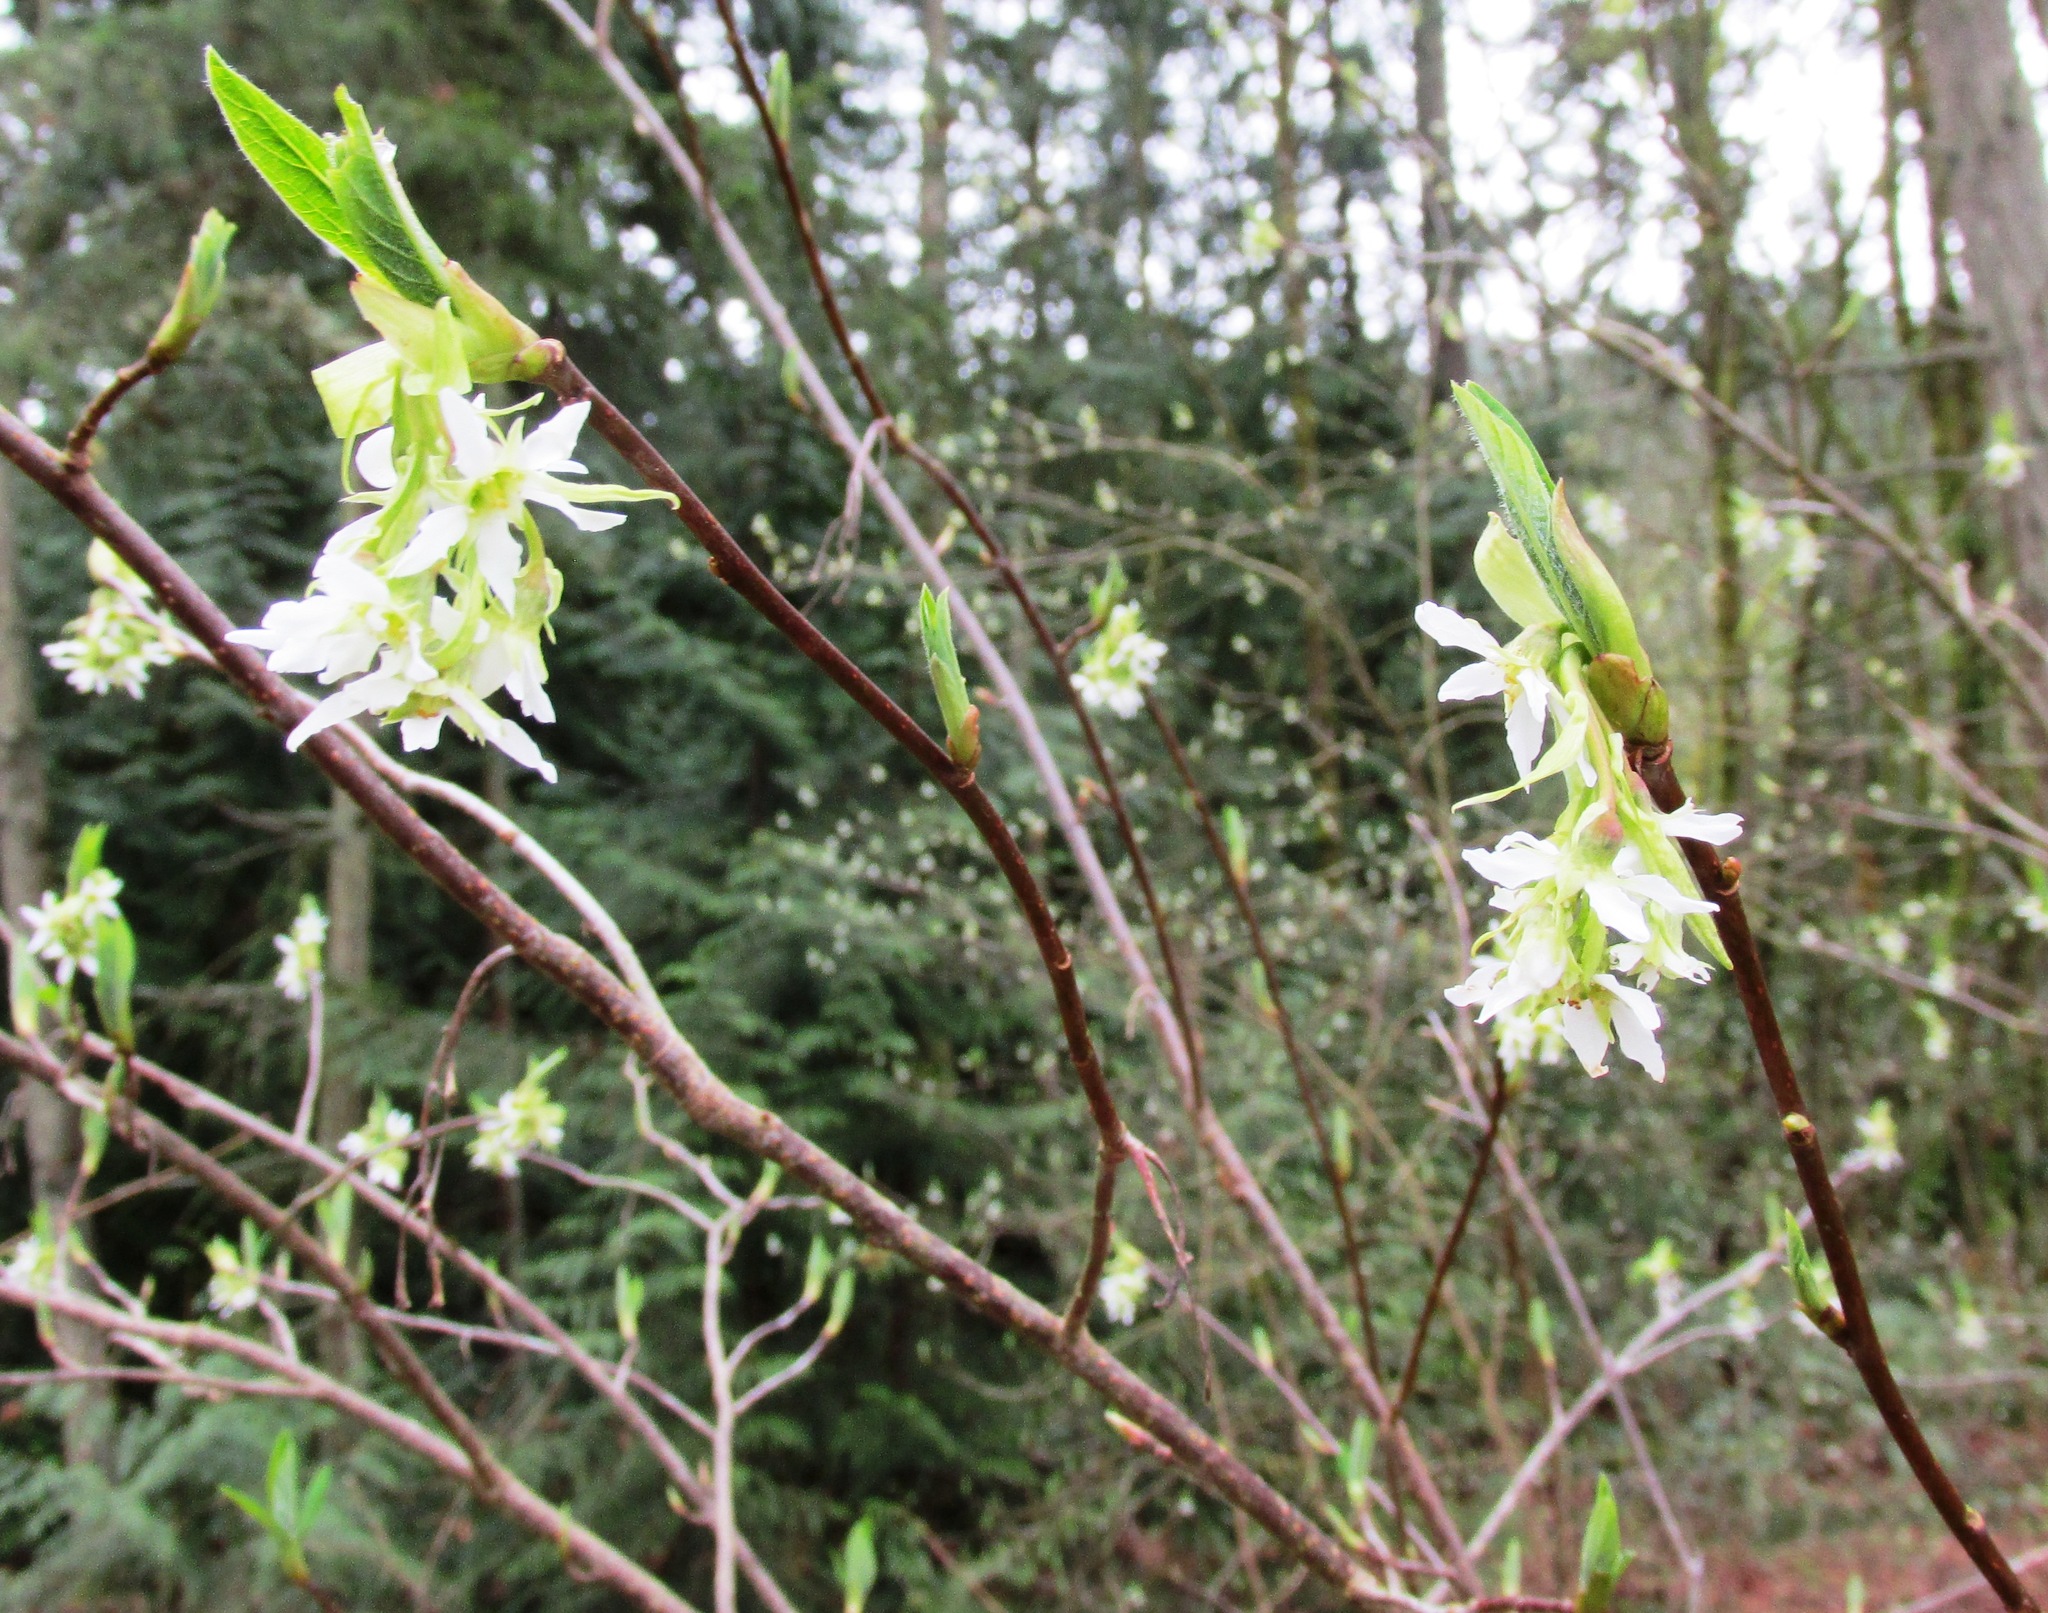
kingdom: Plantae
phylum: Tracheophyta
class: Magnoliopsida
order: Rosales
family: Rosaceae
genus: Oemleria
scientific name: Oemleria cerasiformis
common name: Osoberry
